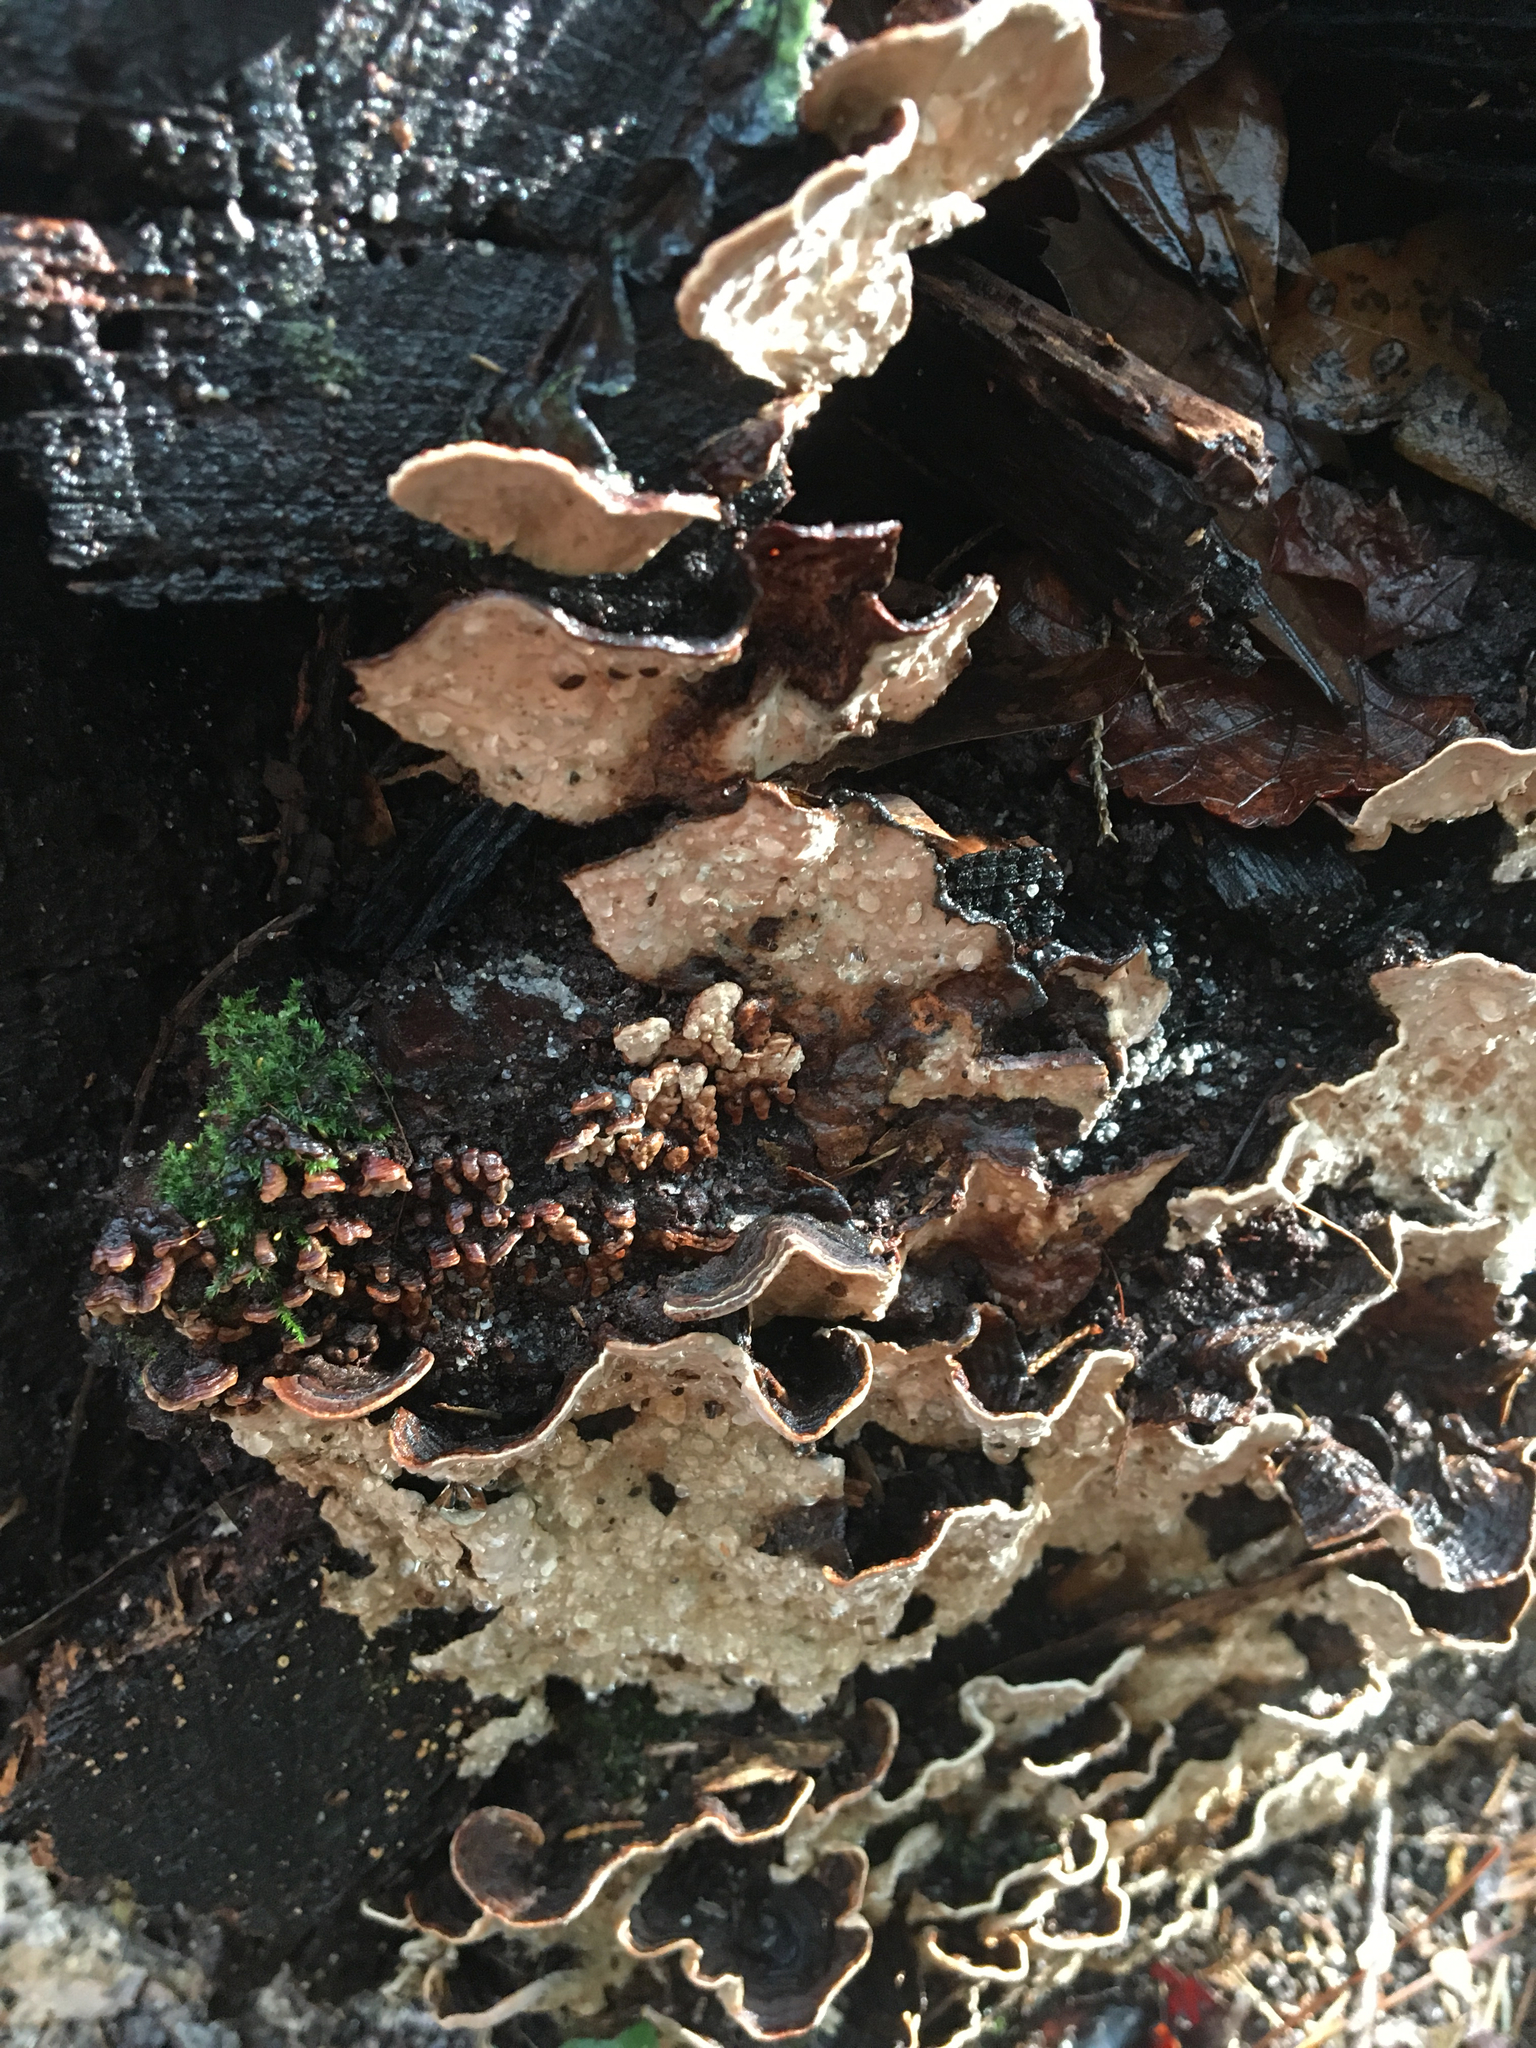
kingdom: Fungi
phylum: Basidiomycota
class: Agaricomycetes
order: Russulales
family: Stereaceae
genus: Xylobolus
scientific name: Xylobolus subpileatus
